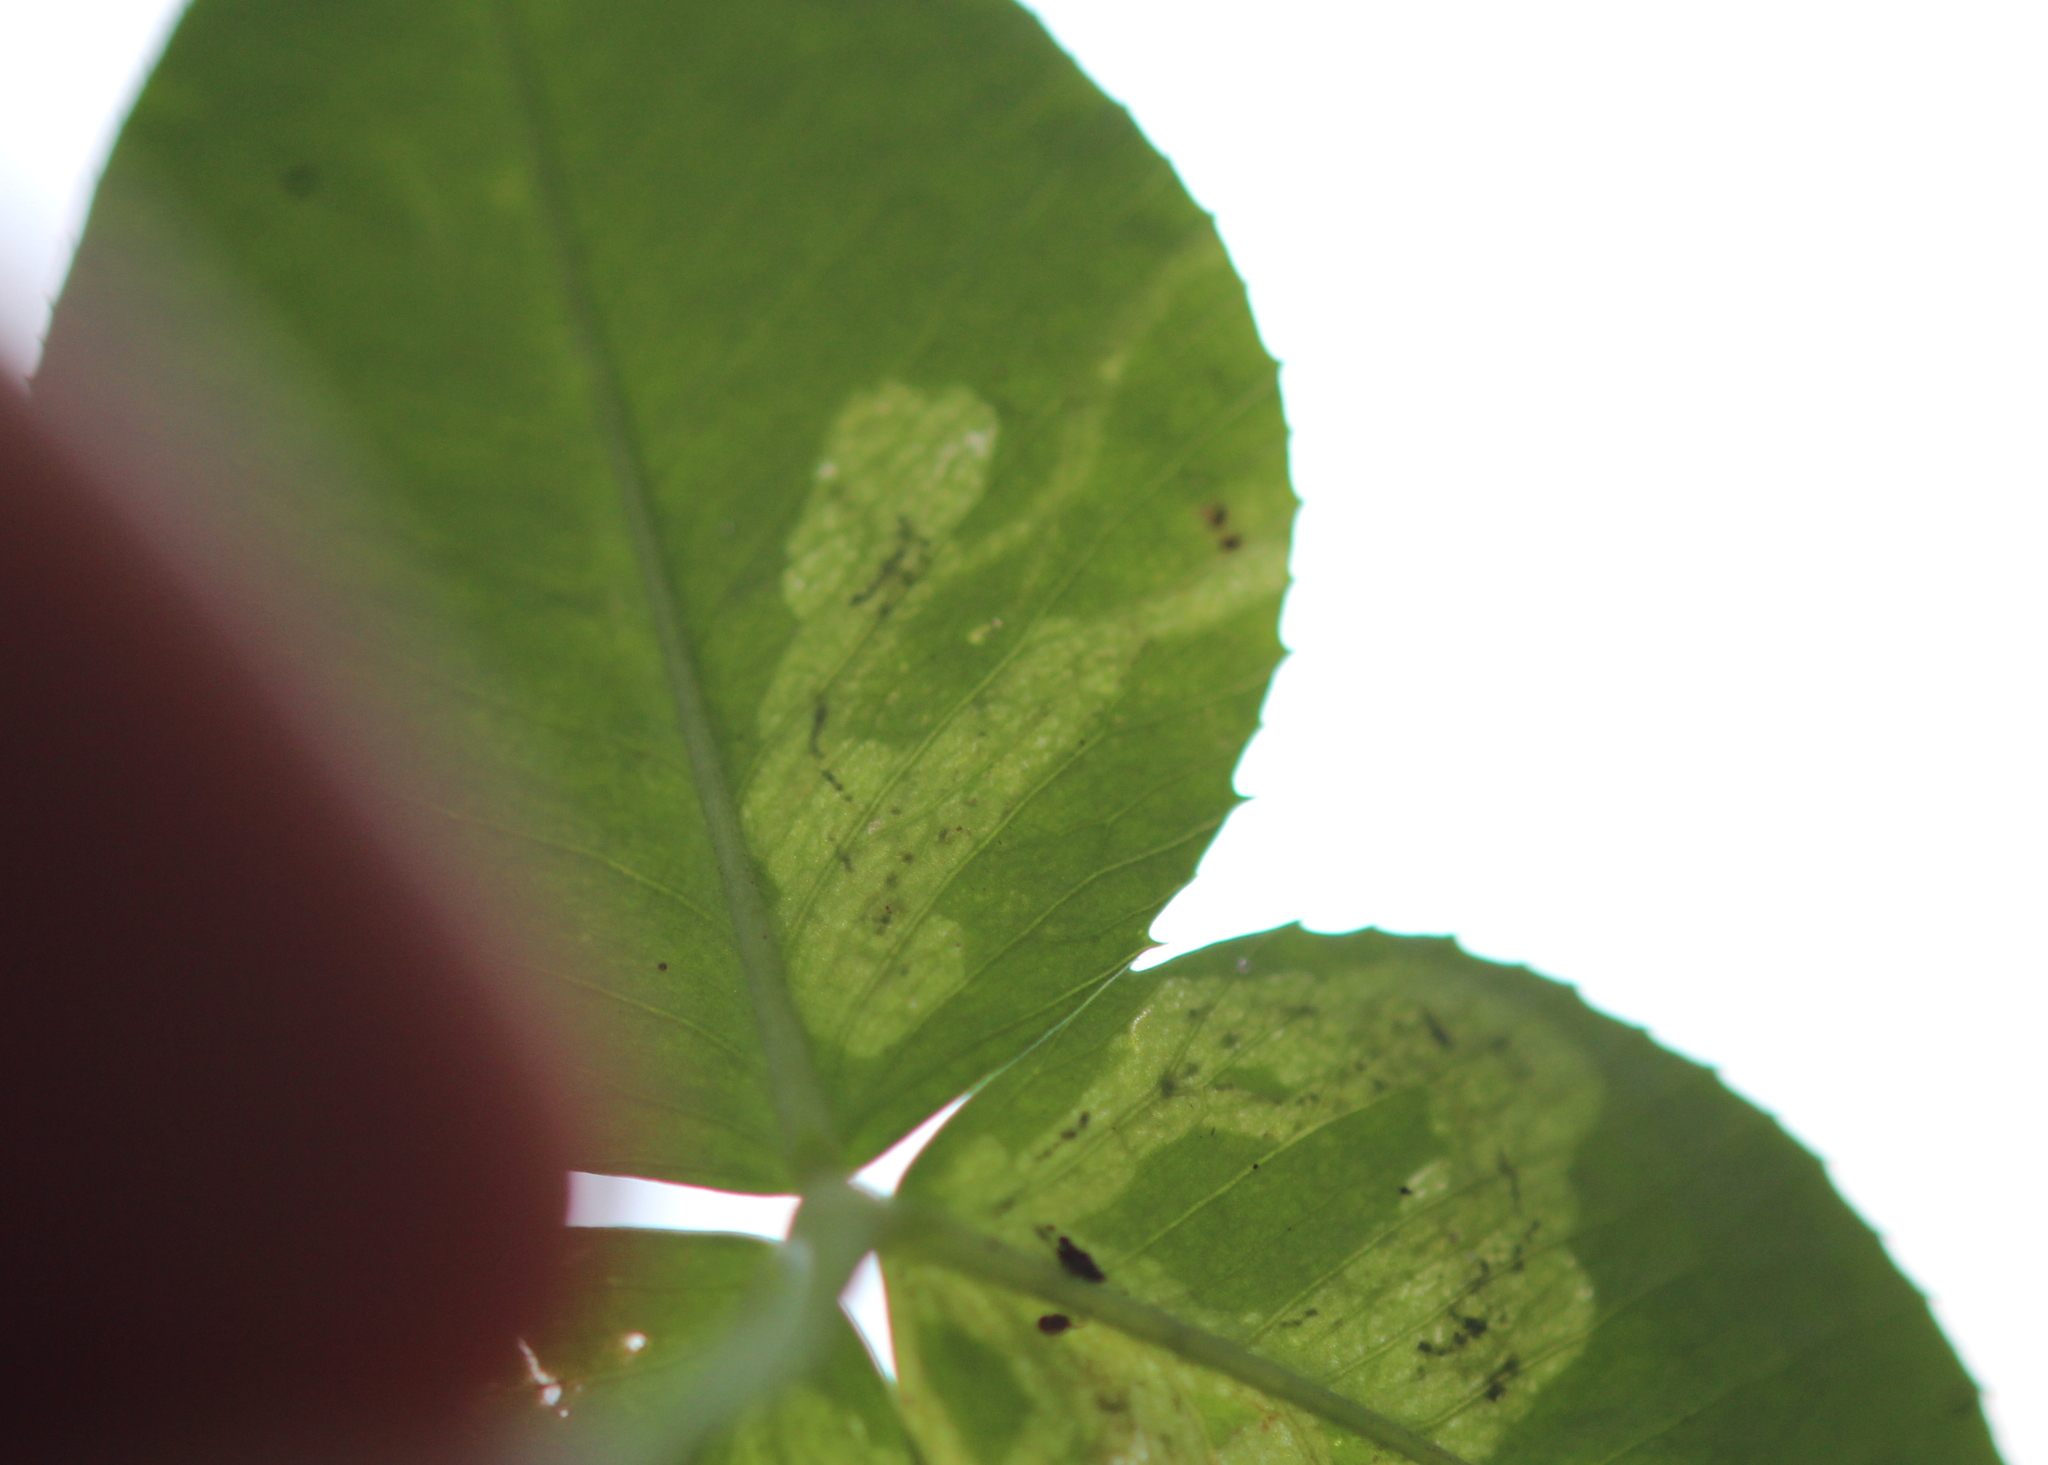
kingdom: Animalia
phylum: Arthropoda
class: Insecta
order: Diptera
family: Agromyzidae
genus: Liriomyza
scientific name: Liriomyza fricki
